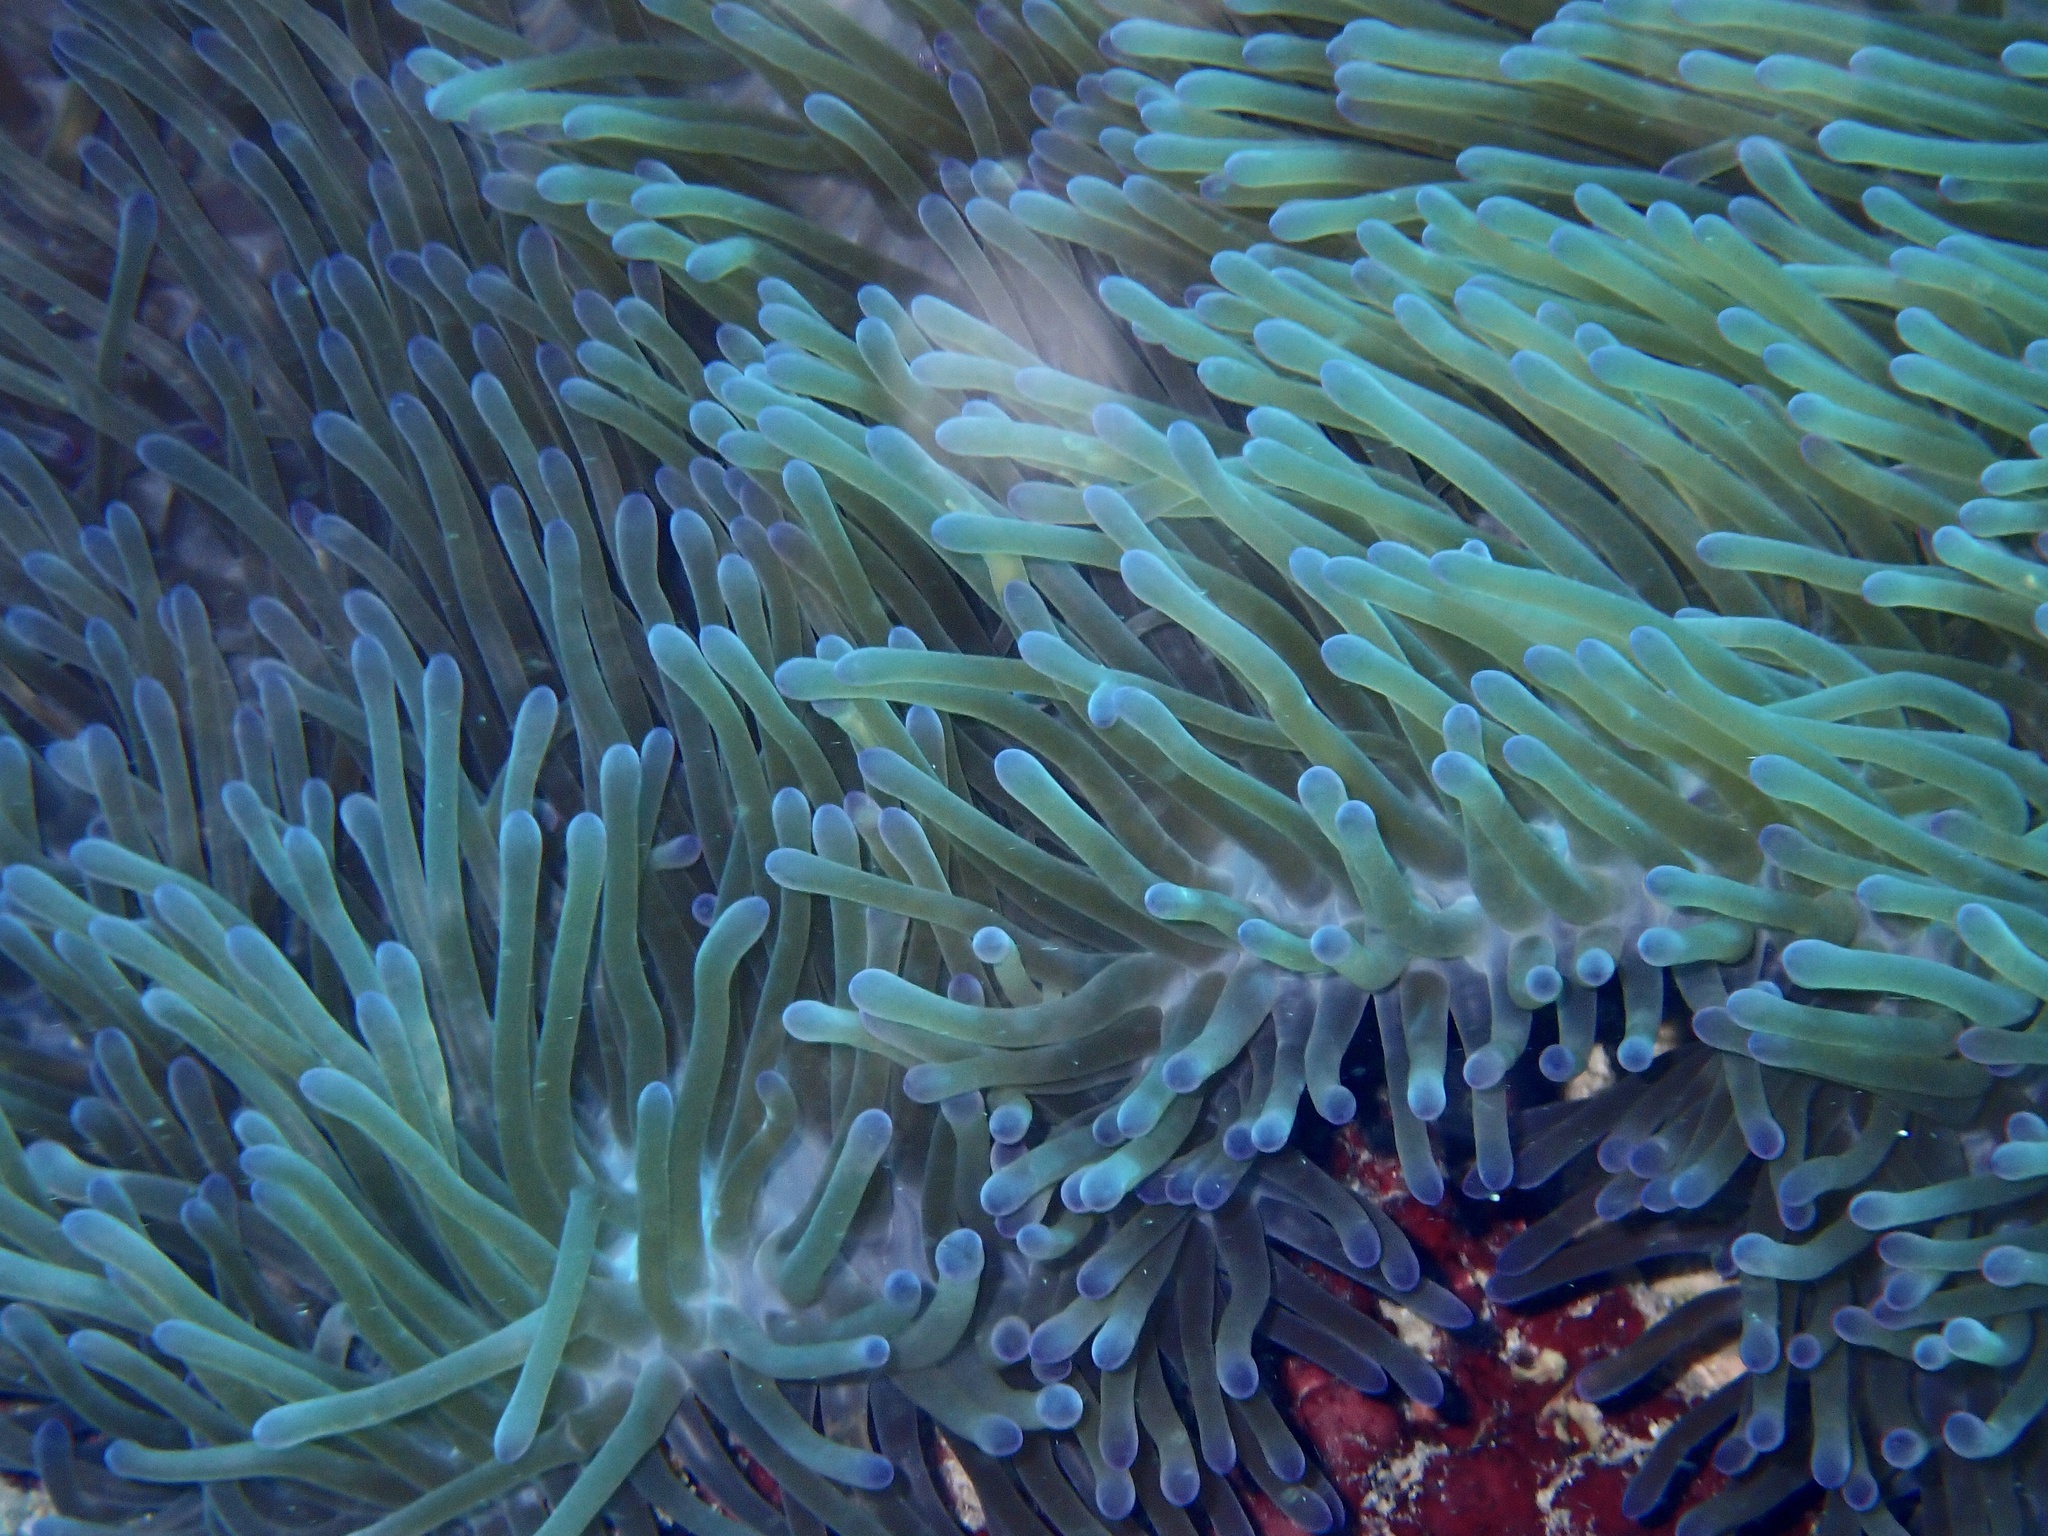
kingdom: Animalia
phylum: Cnidaria
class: Anthozoa
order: Actiniaria
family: Stichodactylidae
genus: Radianthus
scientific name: Radianthus magnifica
